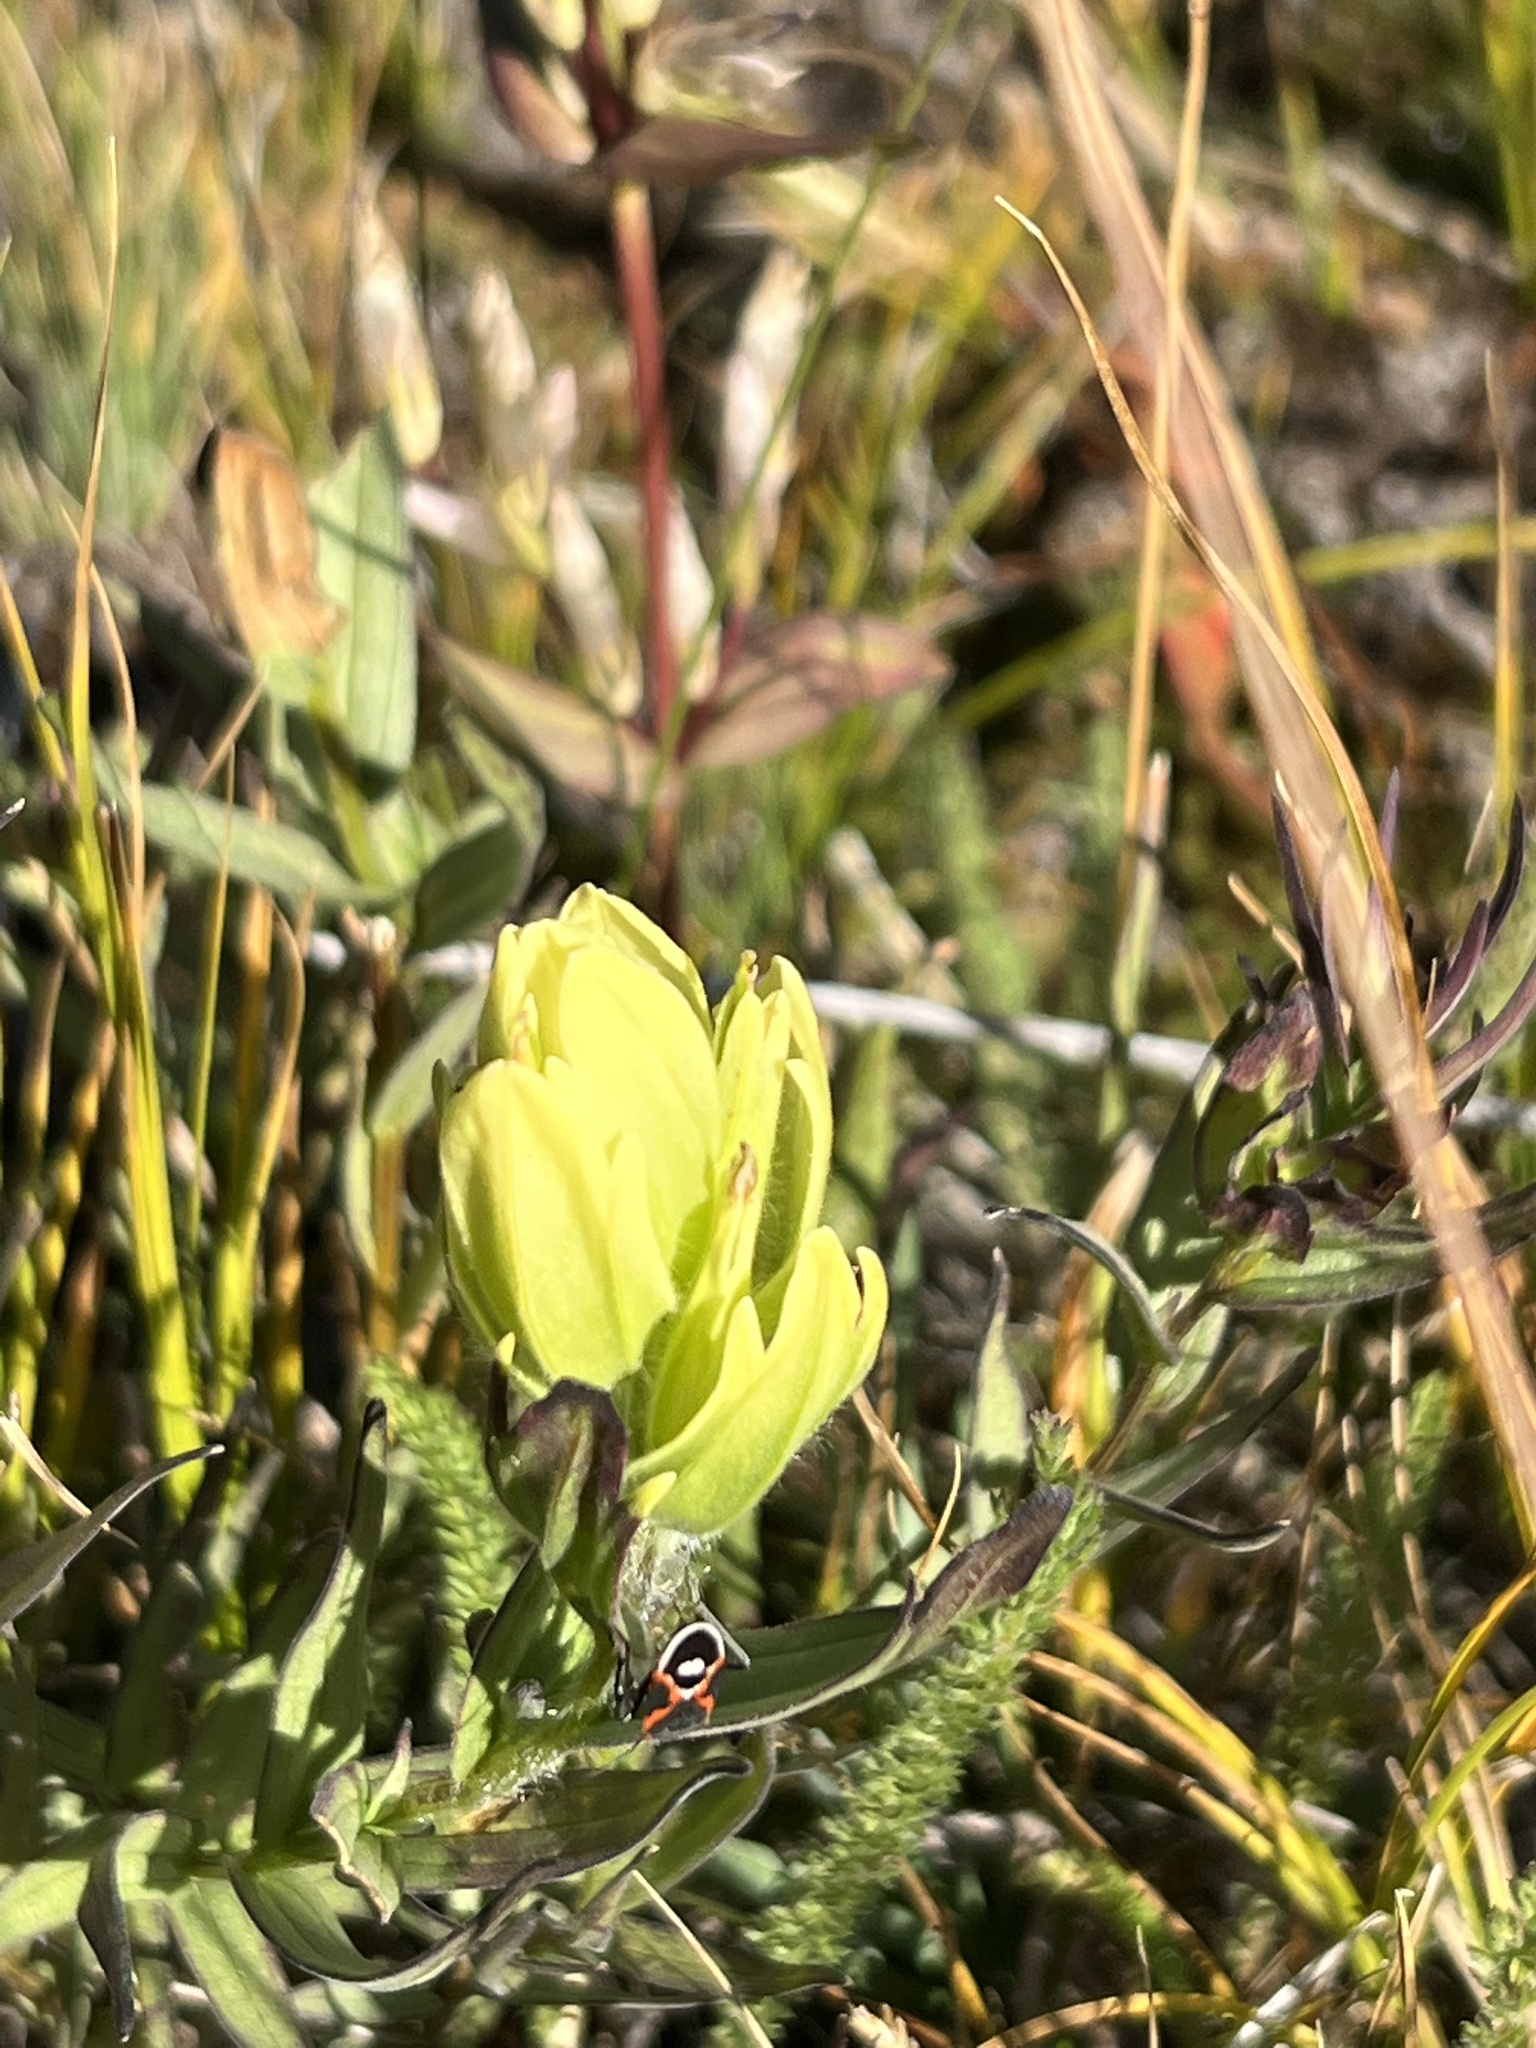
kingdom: Plantae
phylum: Tracheophyta
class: Magnoliopsida
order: Lamiales
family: Orobanchaceae
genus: Castilleja
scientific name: Castilleja occidentalis
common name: Western paintbrush
